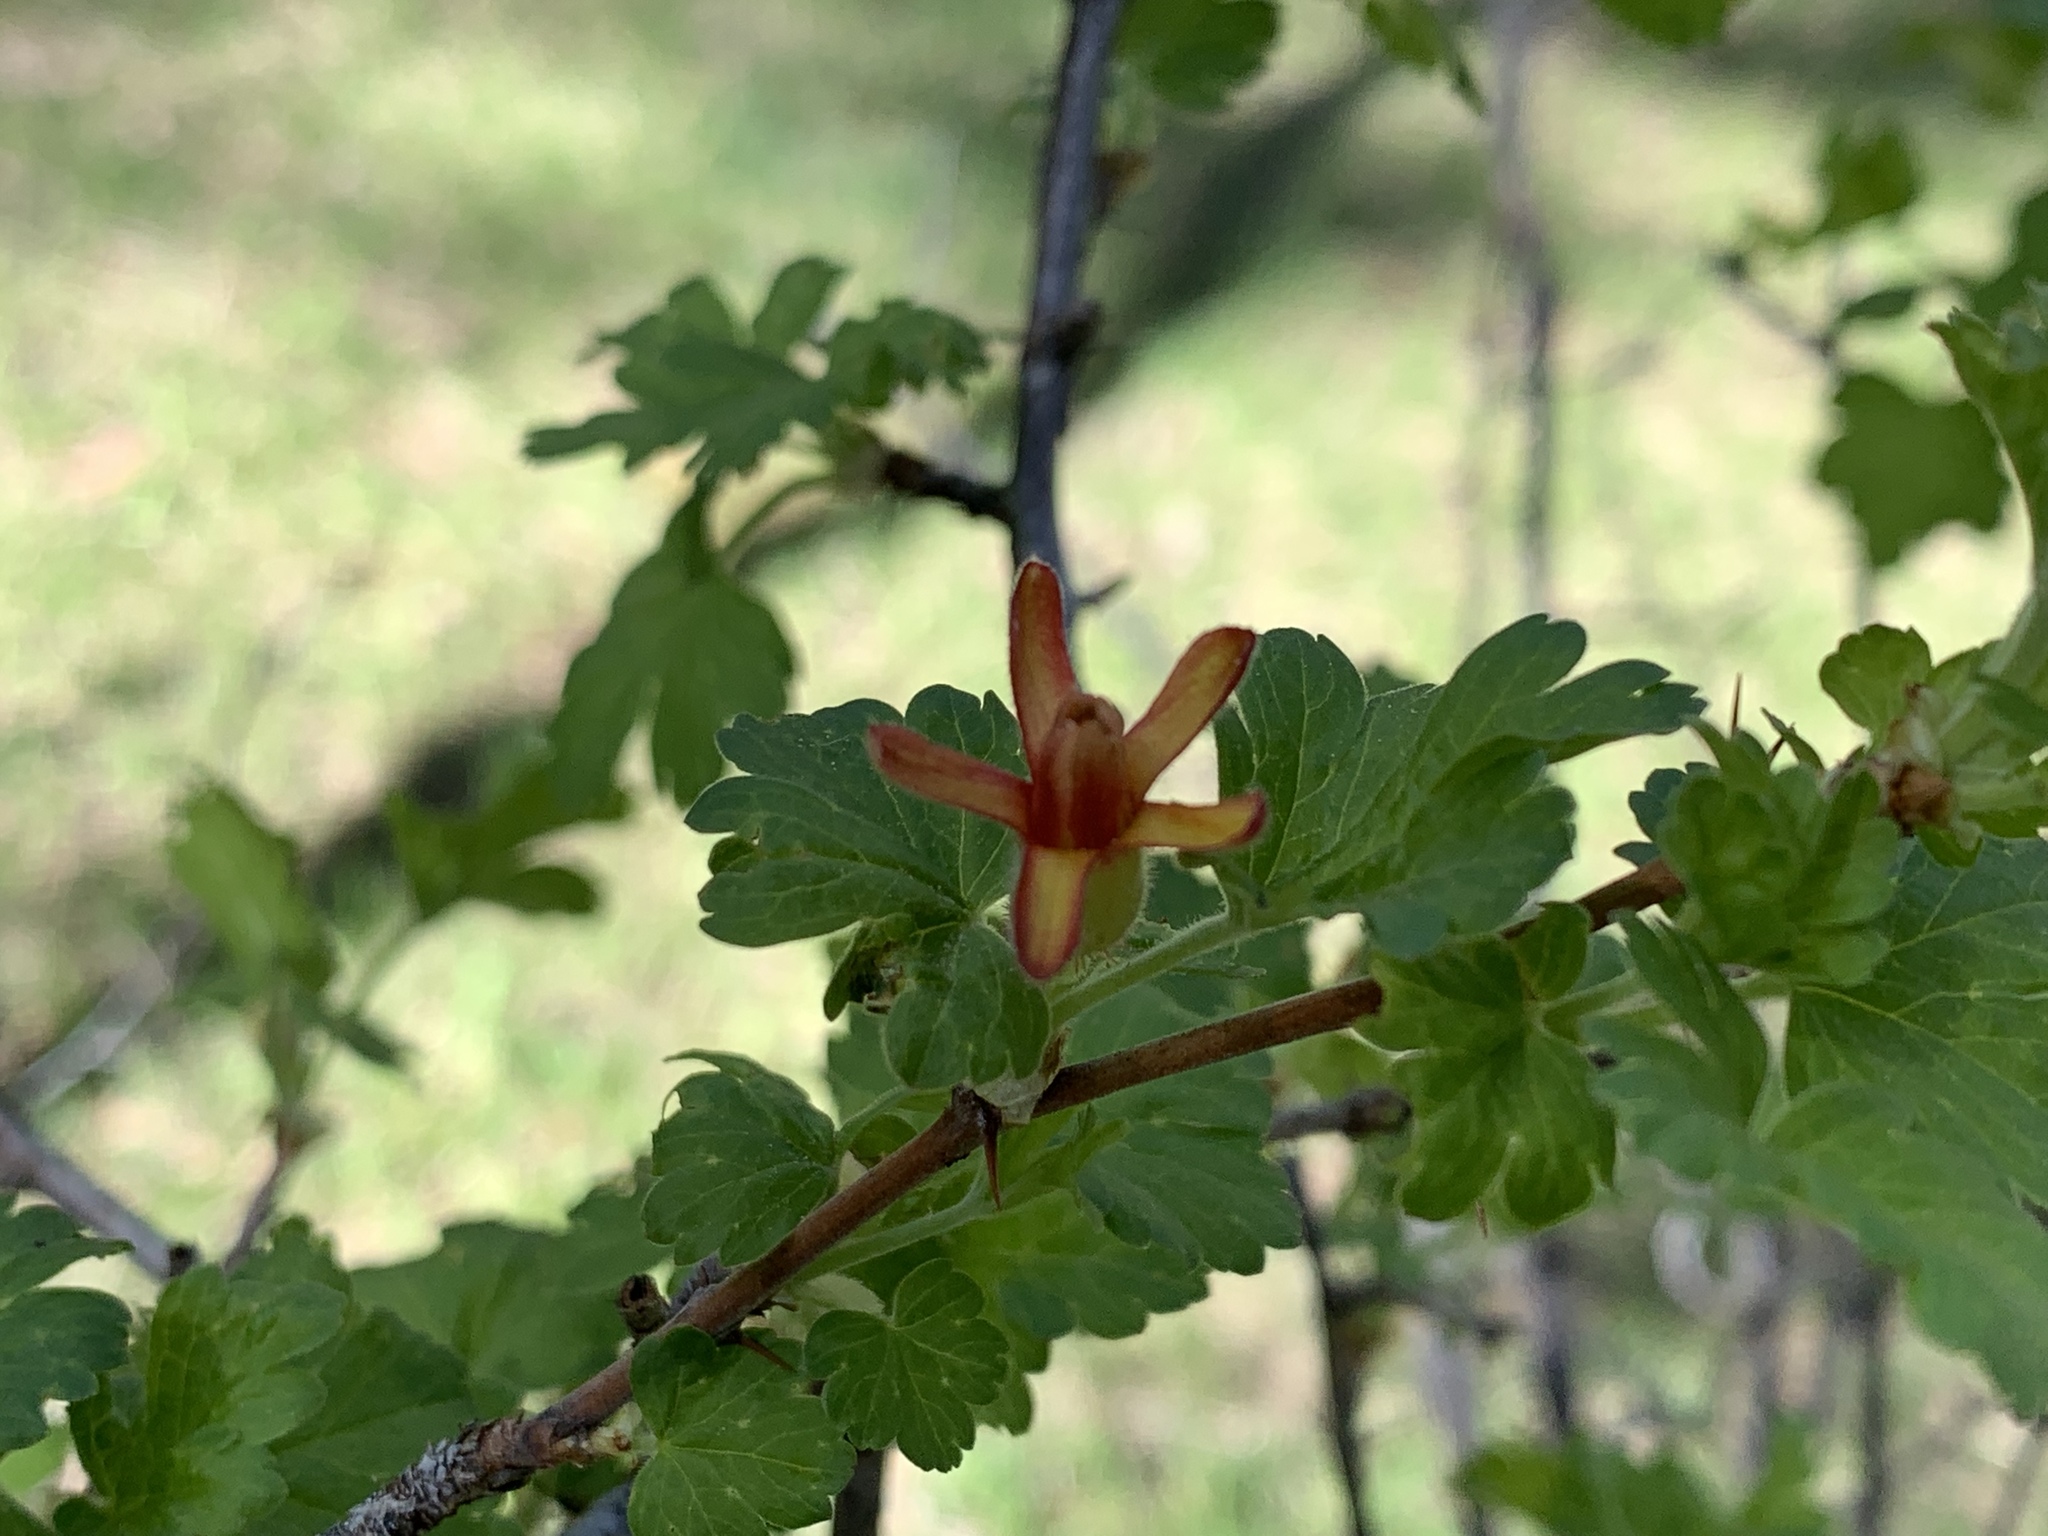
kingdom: Plantae
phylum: Tracheophyta
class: Magnoliopsida
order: Saxifragales
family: Grossulariaceae
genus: Ribes
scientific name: Ribes pinetorum
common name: Orange gooseberry
